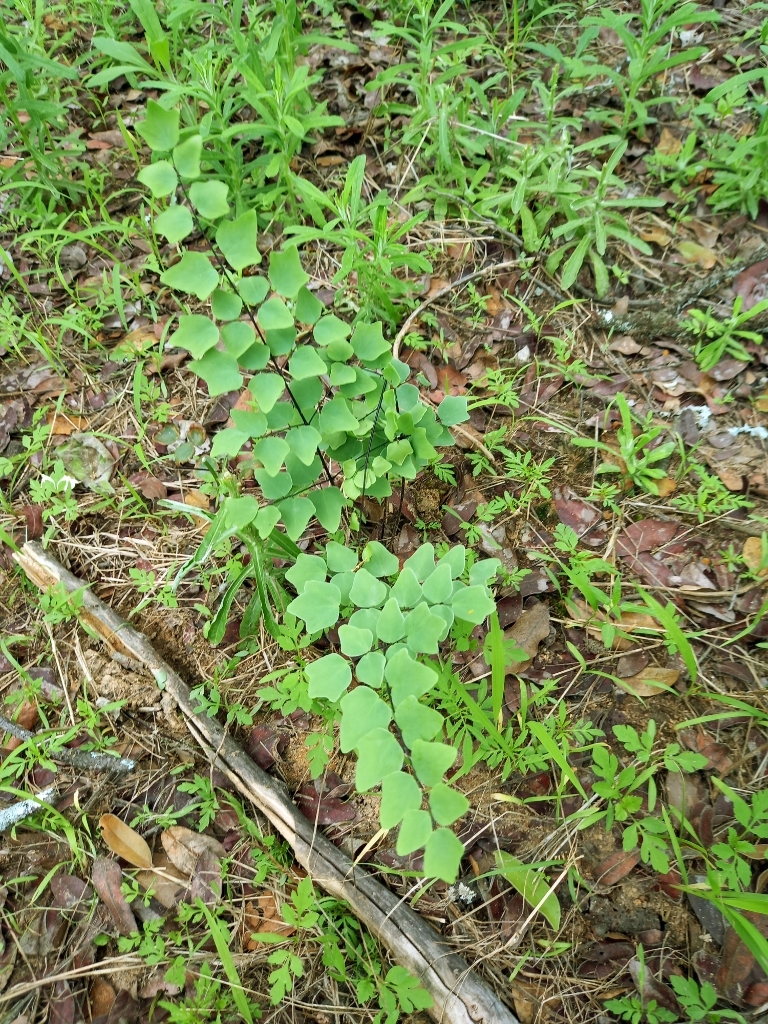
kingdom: Plantae
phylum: Tracheophyta
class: Polypodiopsida
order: Polypodiales
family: Pteridaceae
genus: Pellaea
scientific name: Pellaea calomelanos
